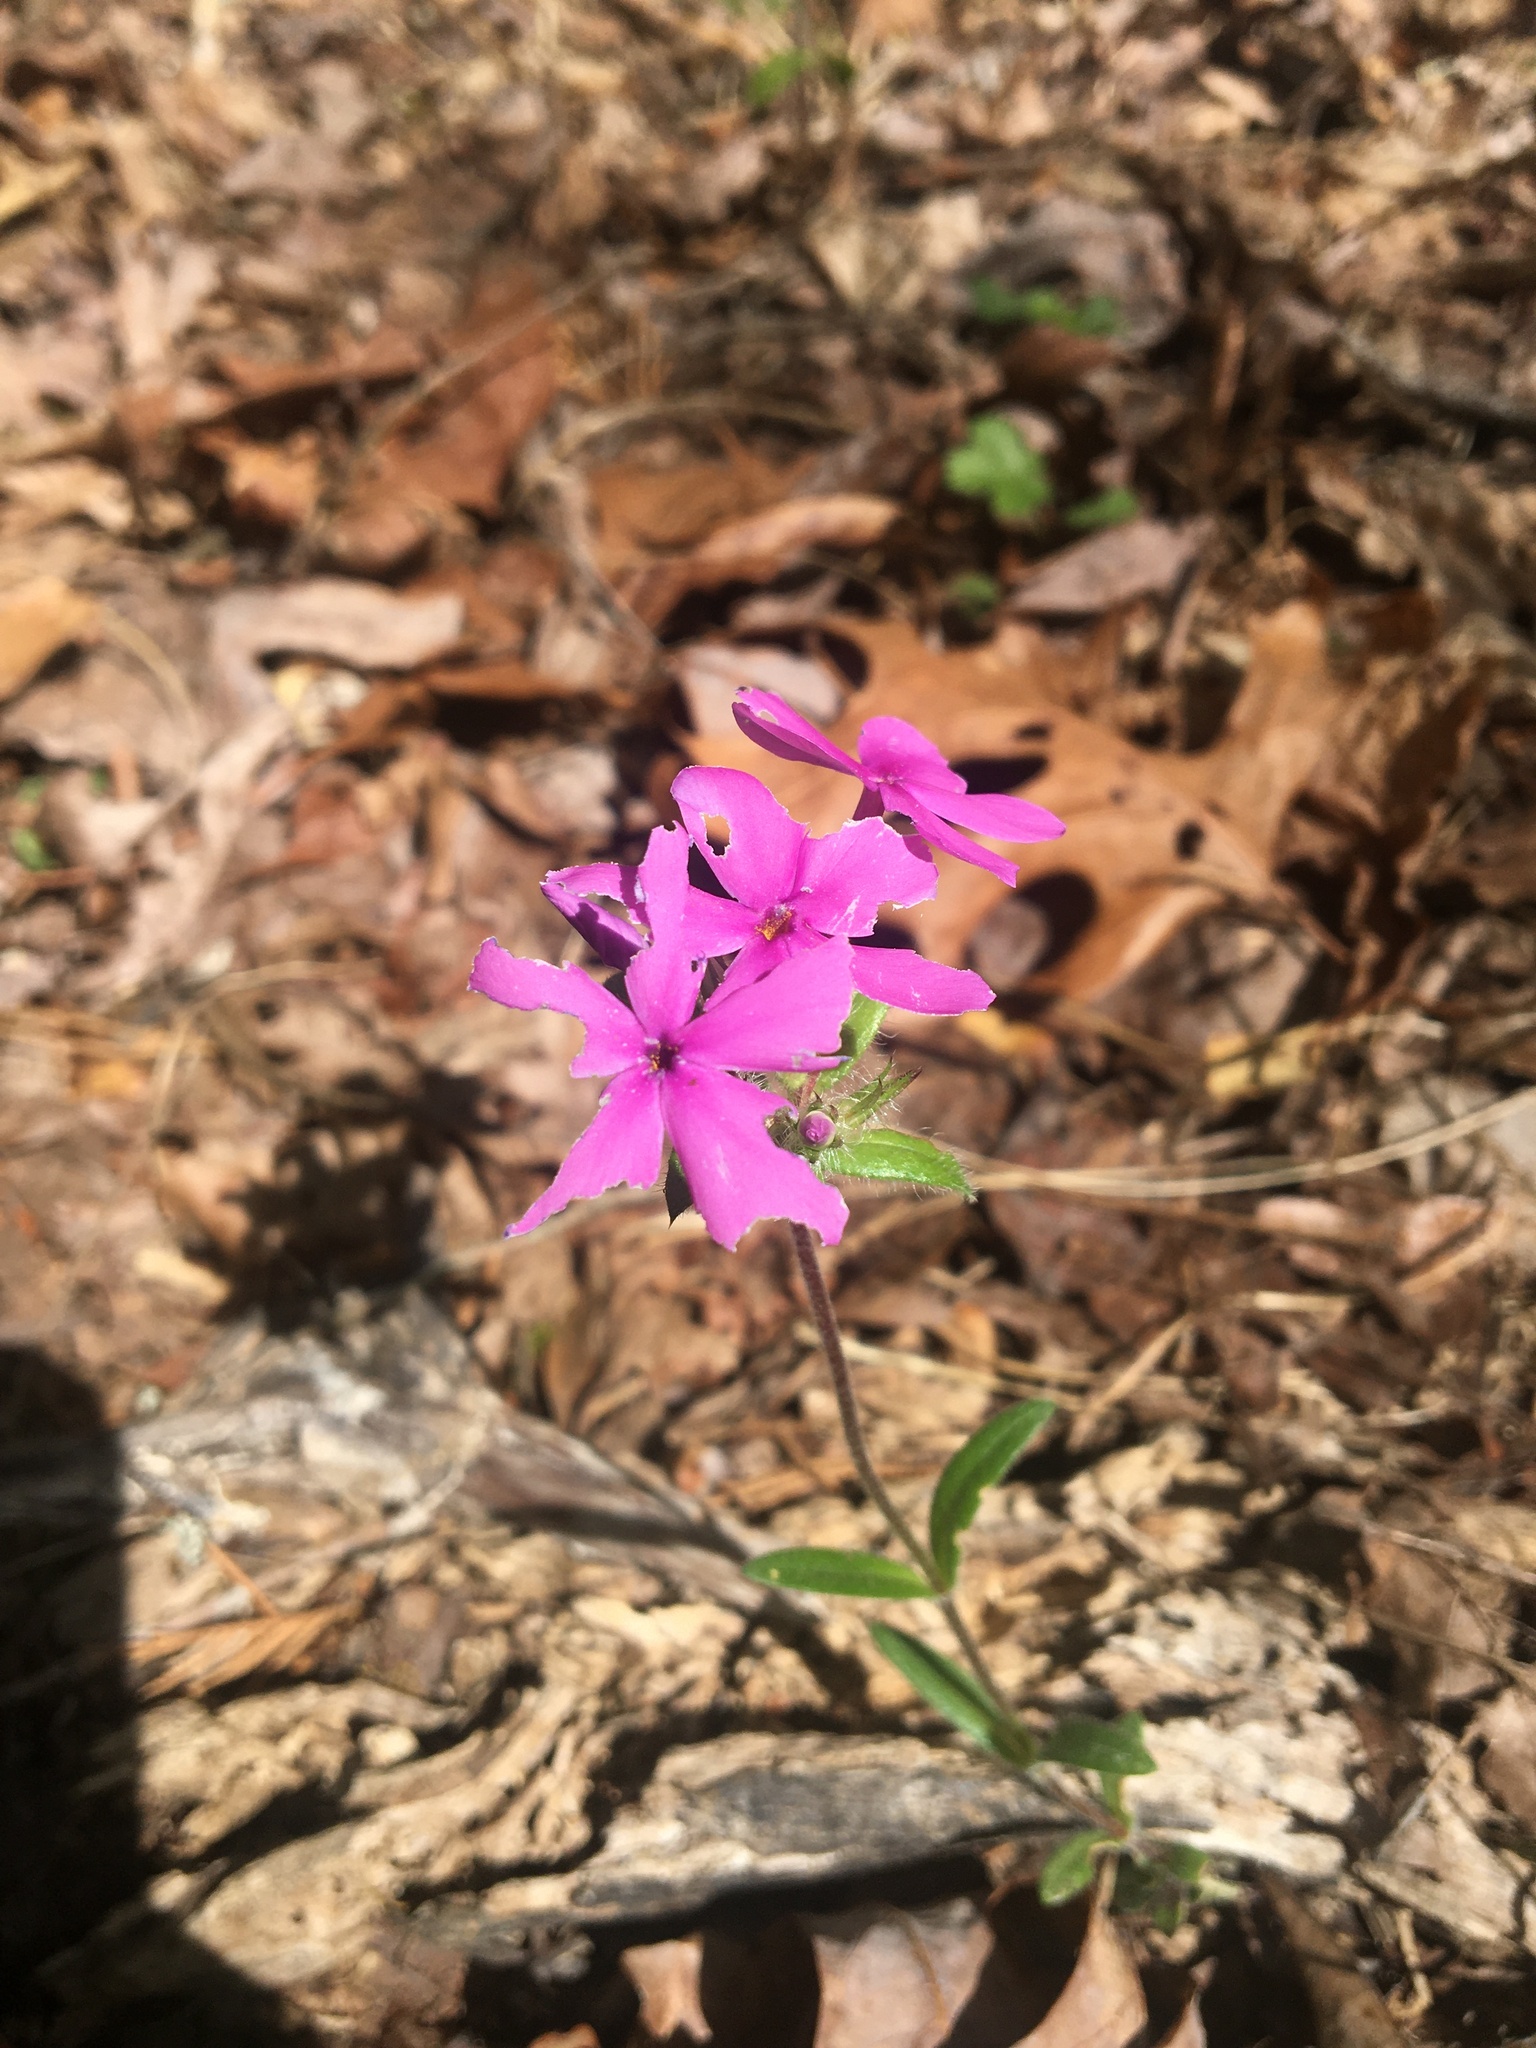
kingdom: Plantae
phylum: Tracheophyta
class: Magnoliopsida
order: Ericales
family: Polemoniaceae
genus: Phlox
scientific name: Phlox amoena
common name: Hairy phlox
